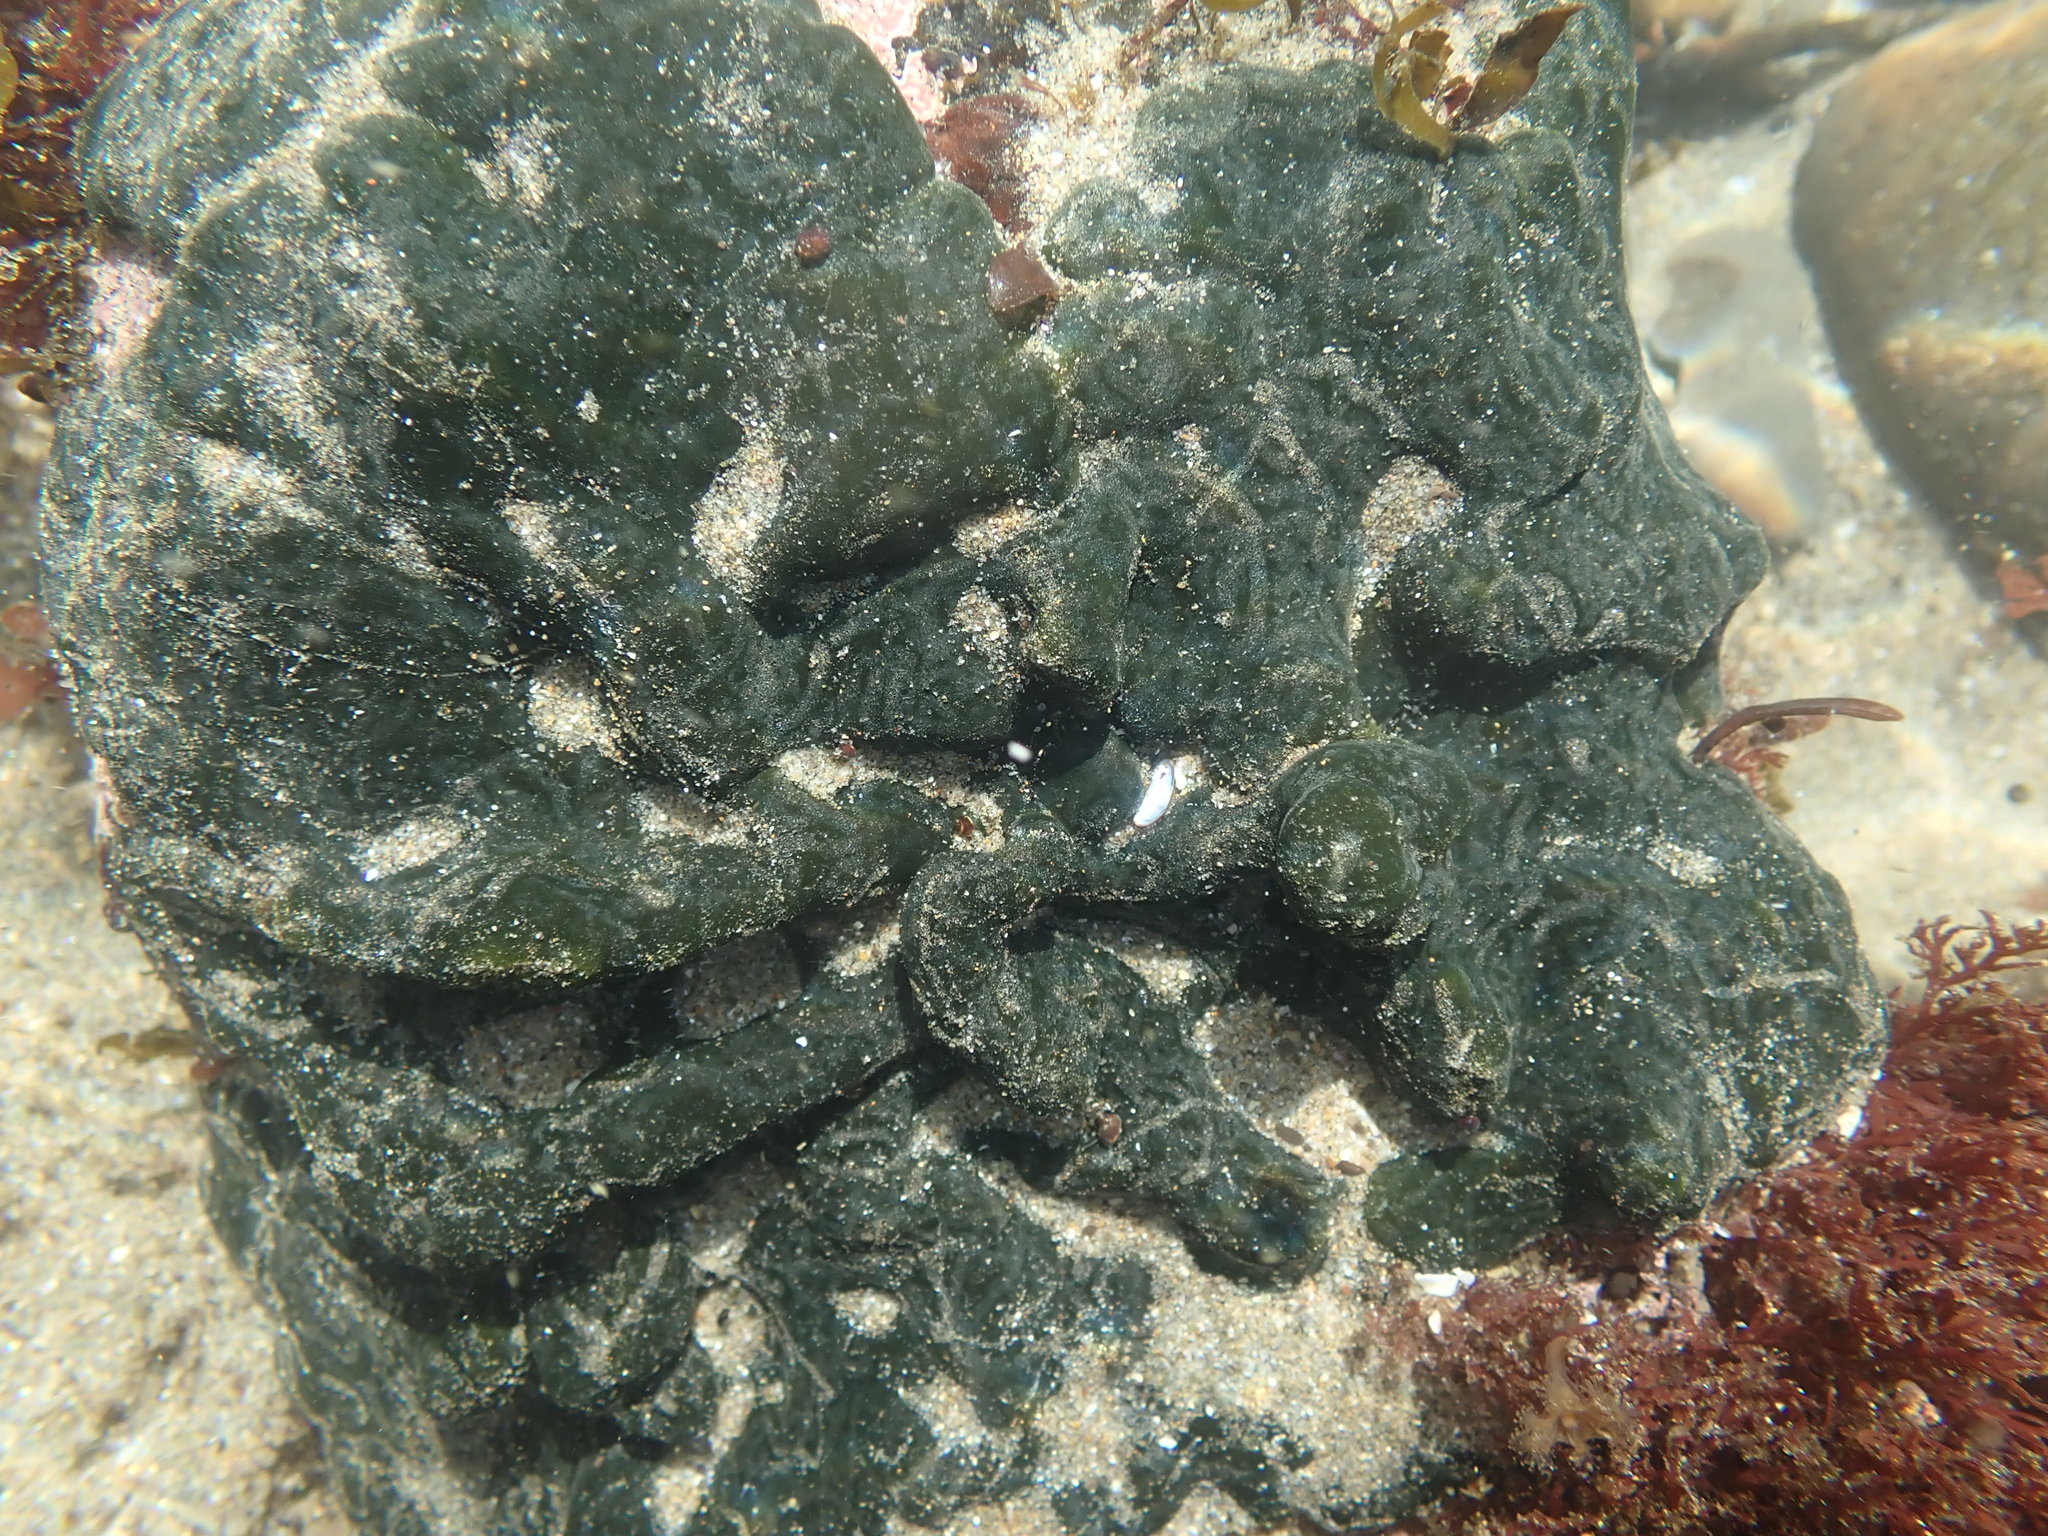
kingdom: Plantae
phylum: Chlorophyta
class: Ulvophyceae
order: Bryopsidales
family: Codiaceae
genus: Codium
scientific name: Codium setchellii
